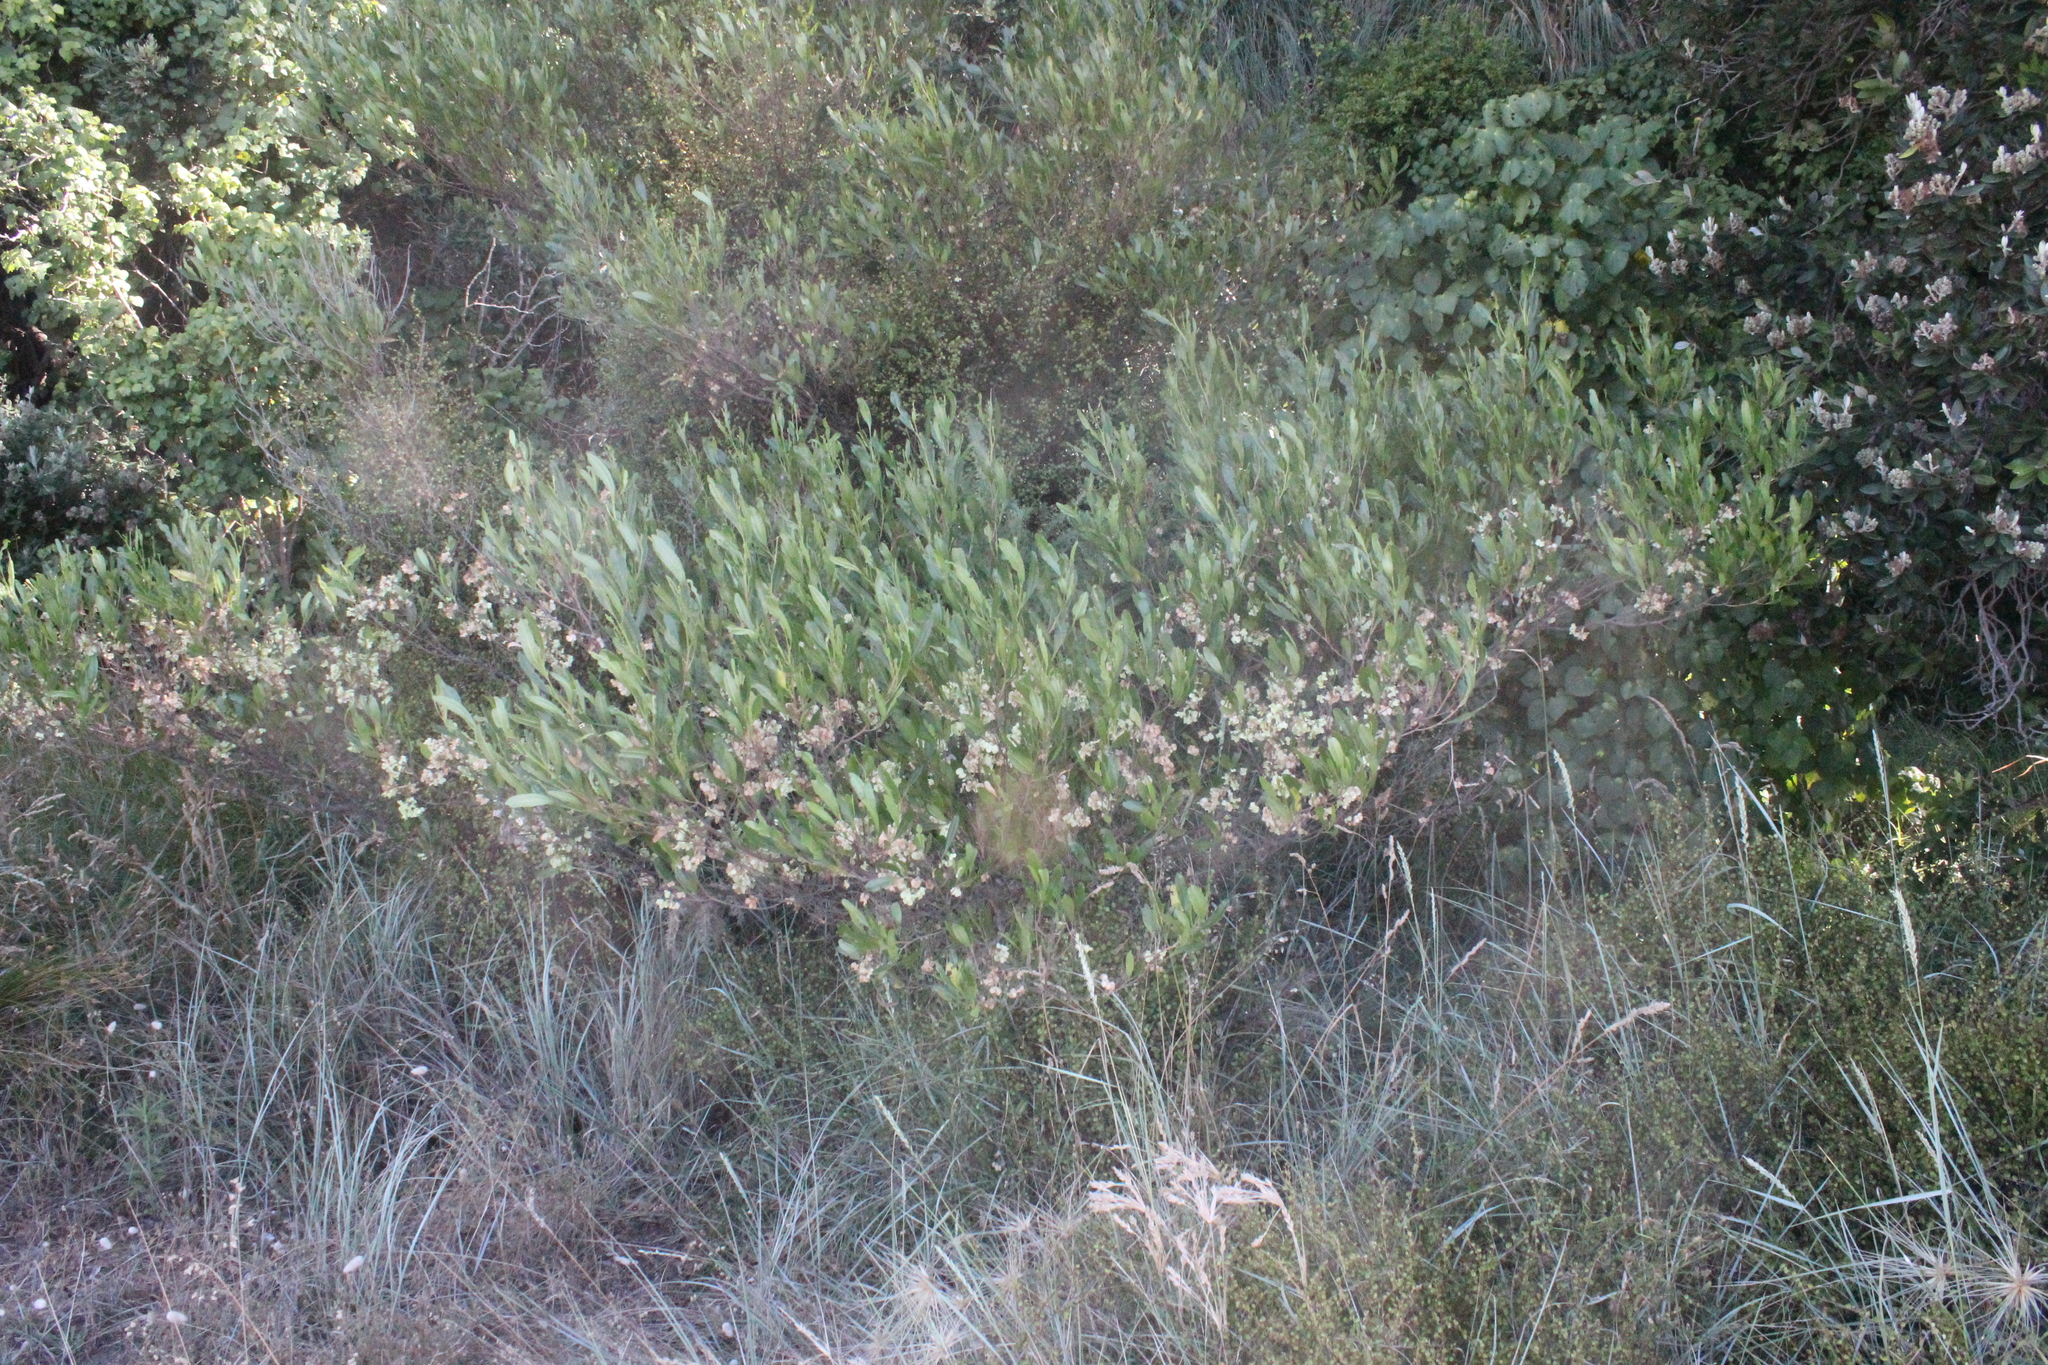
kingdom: Plantae
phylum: Tracheophyta
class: Magnoliopsida
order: Sapindales
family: Sapindaceae
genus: Dodonaea
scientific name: Dodonaea viscosa
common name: Hopbush
